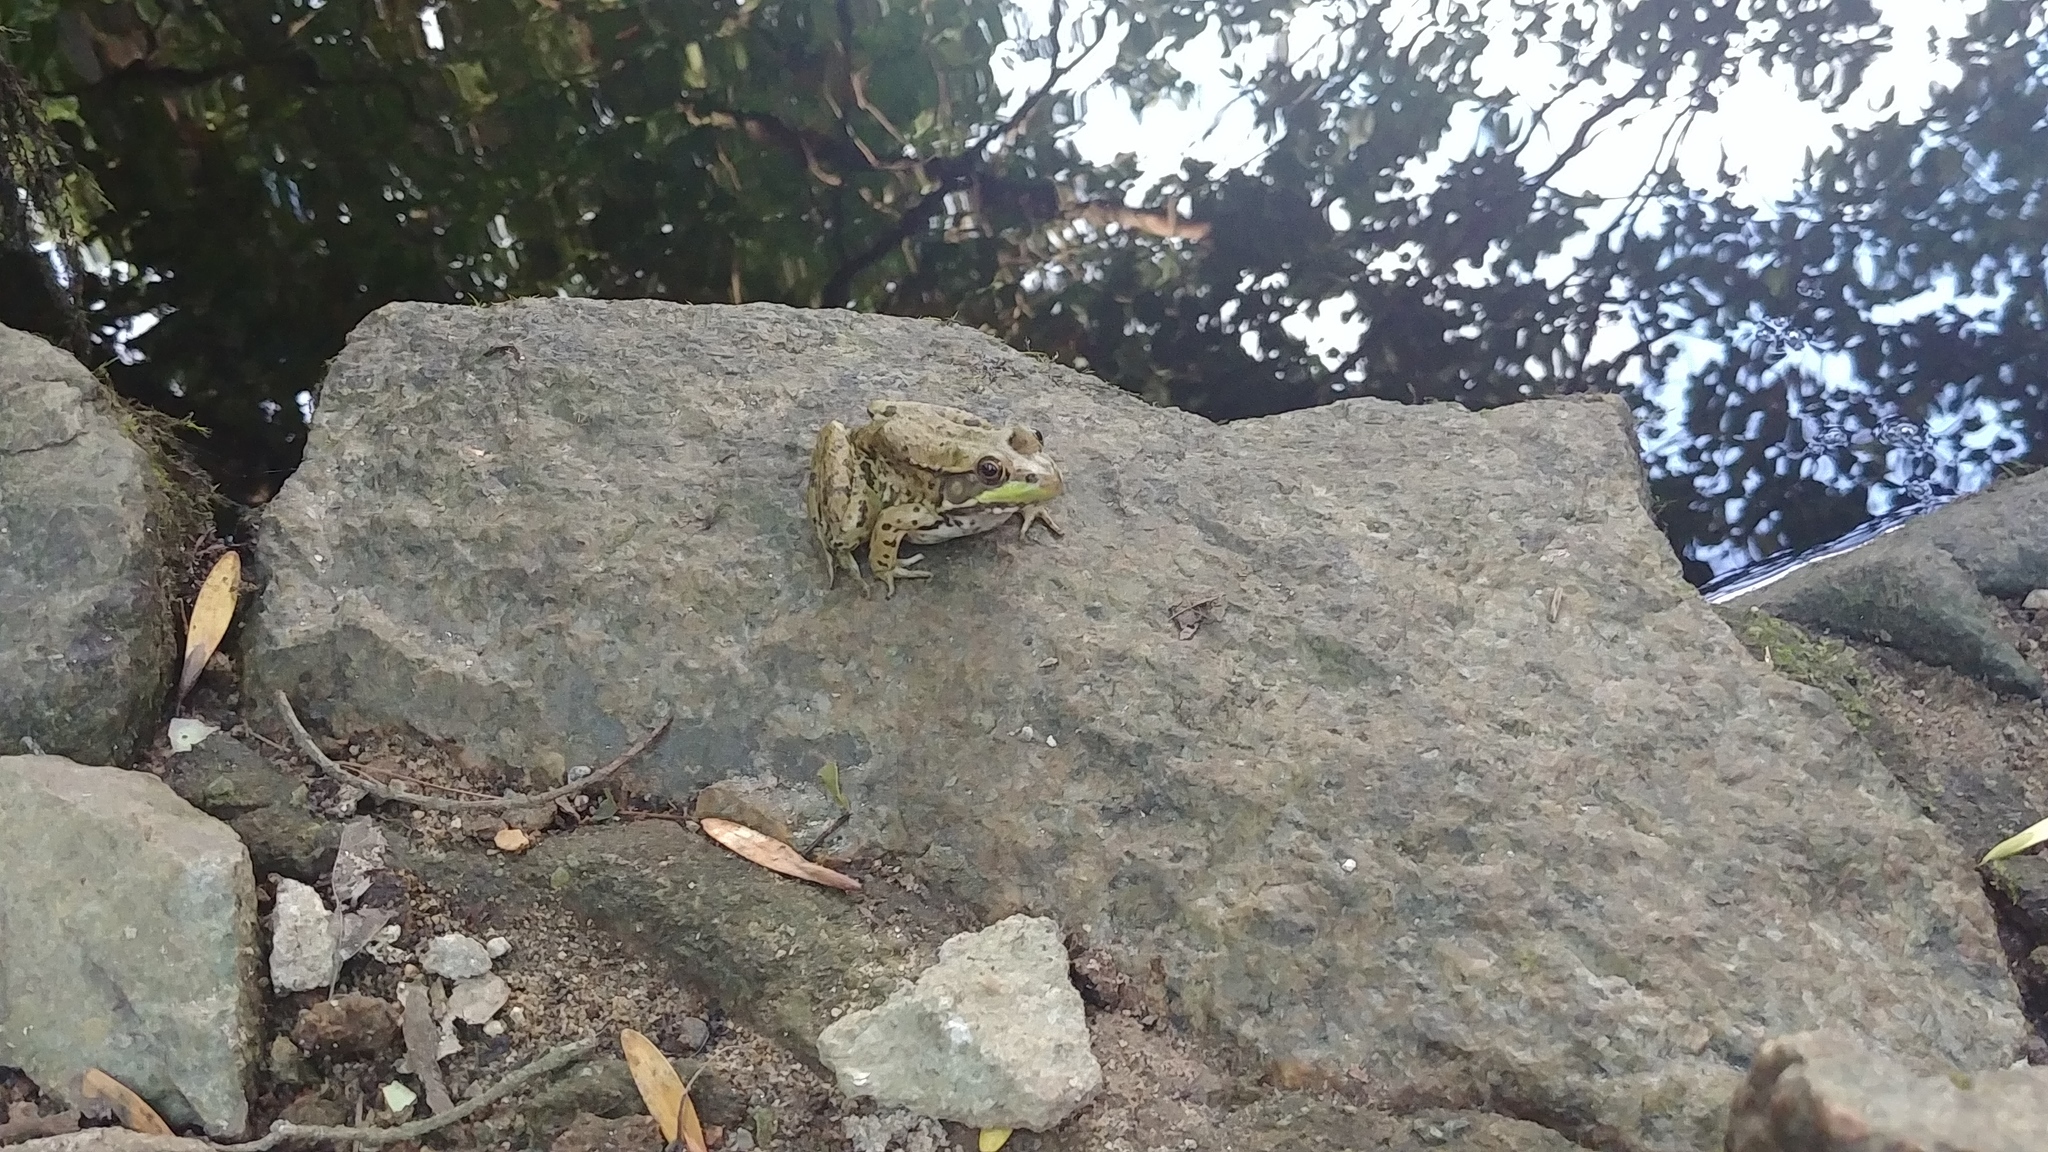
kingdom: Animalia
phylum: Chordata
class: Amphibia
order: Anura
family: Ranidae
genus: Lithobates
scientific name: Lithobates clamitans
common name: Green frog
